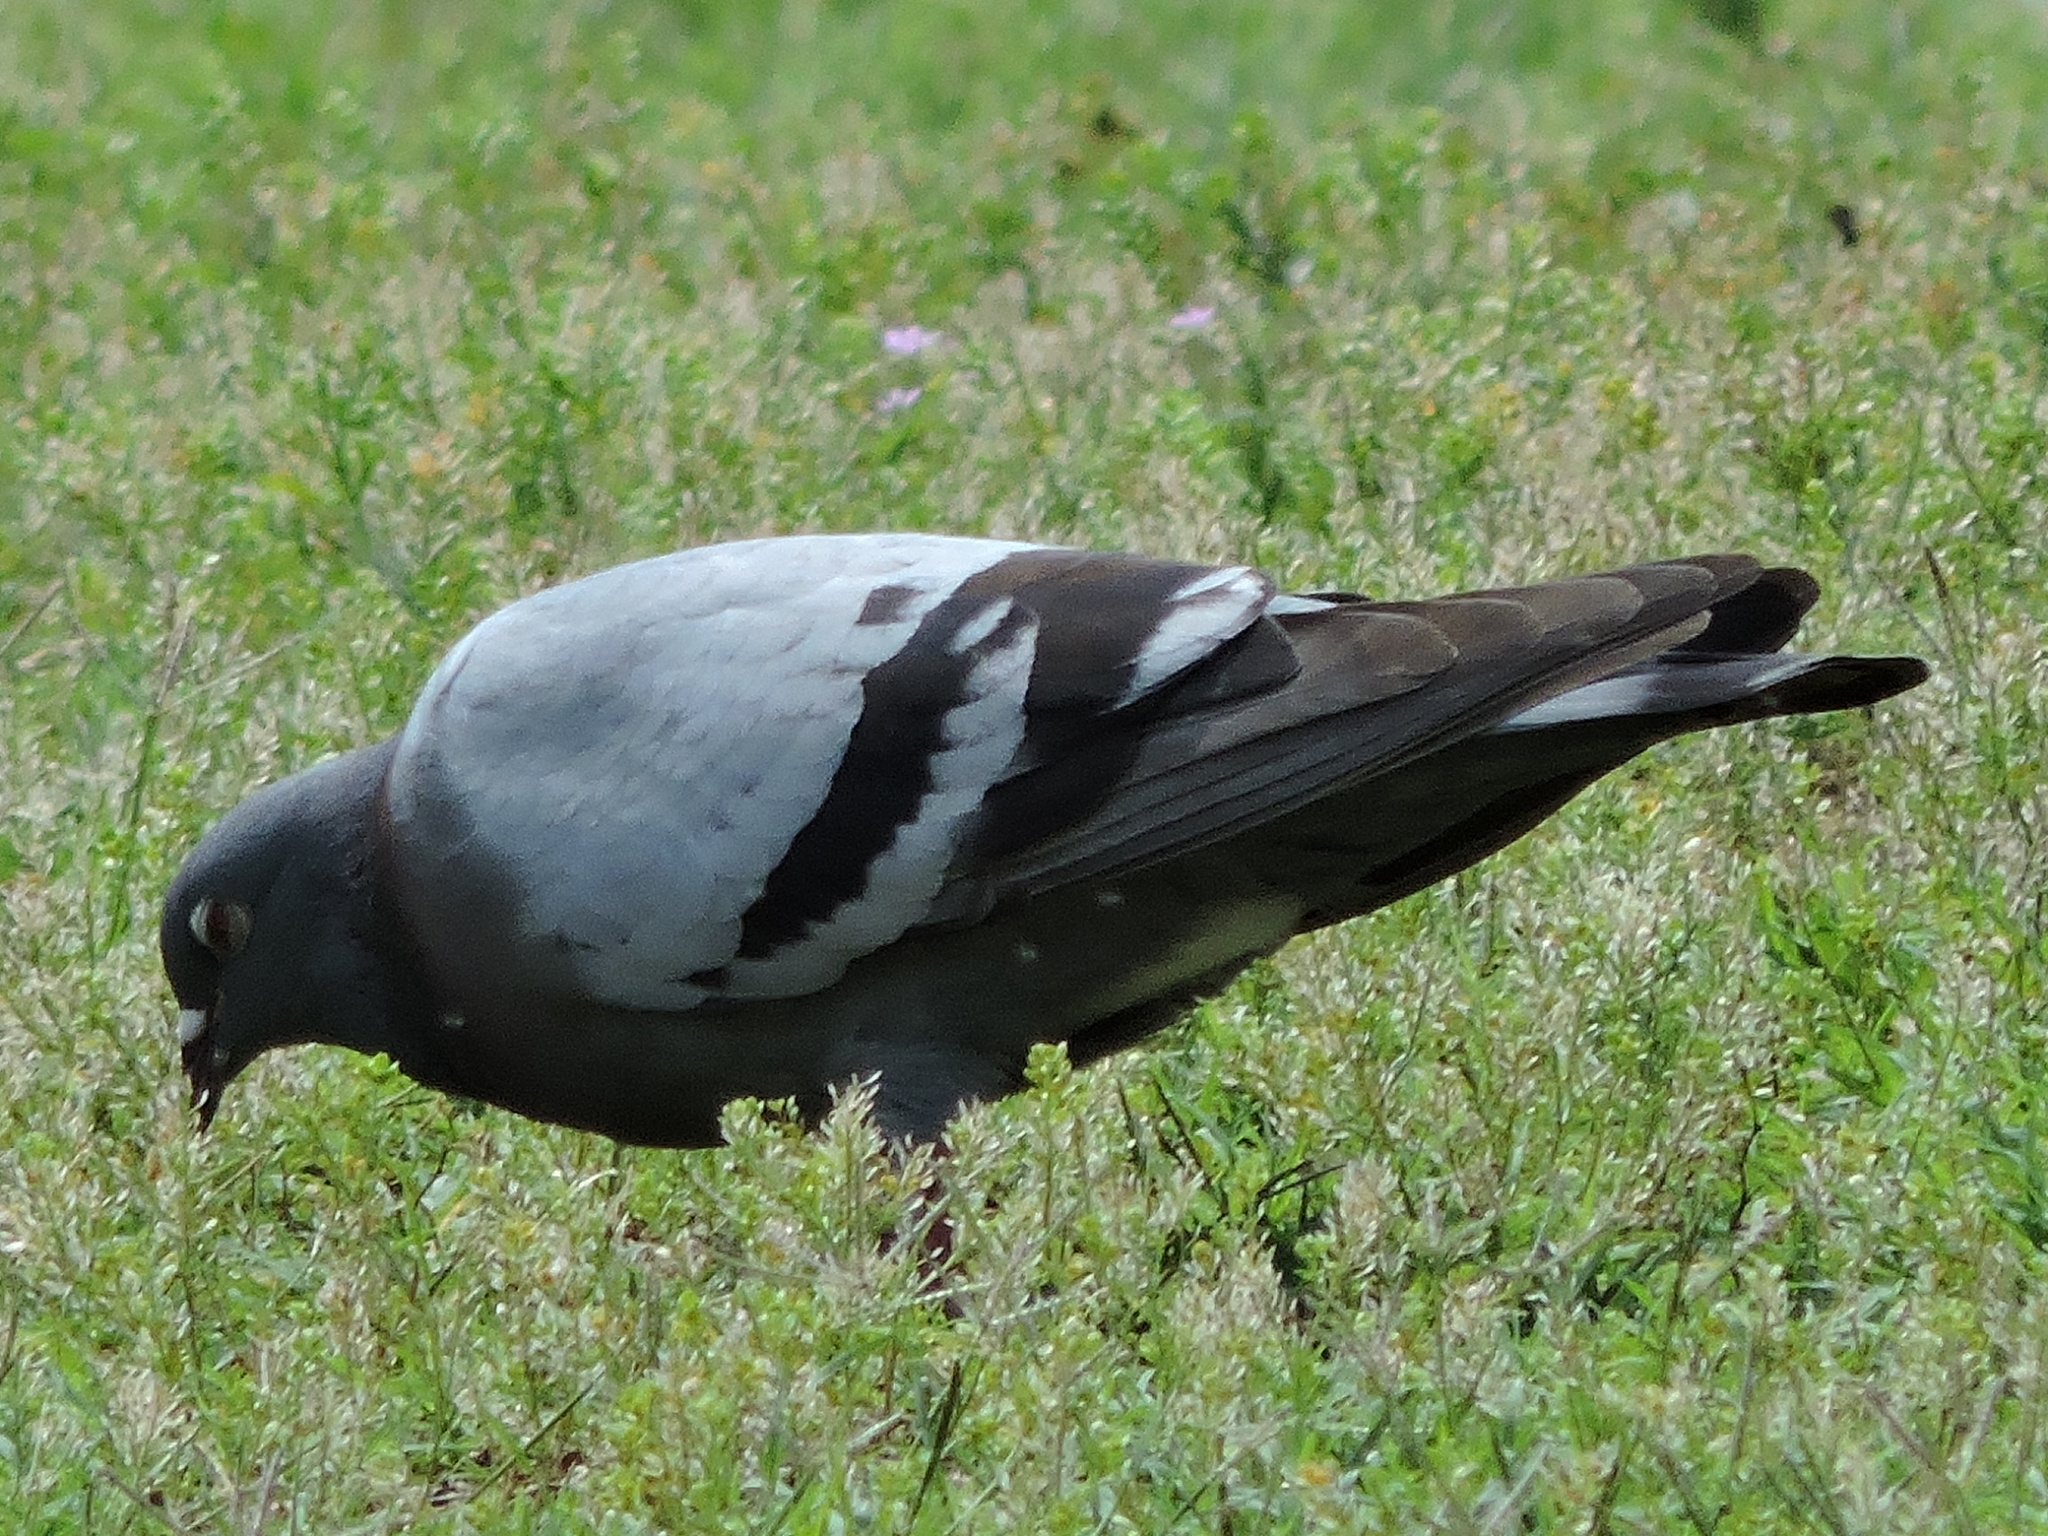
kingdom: Animalia
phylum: Chordata
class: Aves
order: Columbiformes
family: Columbidae
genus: Columba
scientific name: Columba livia
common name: Rock pigeon
